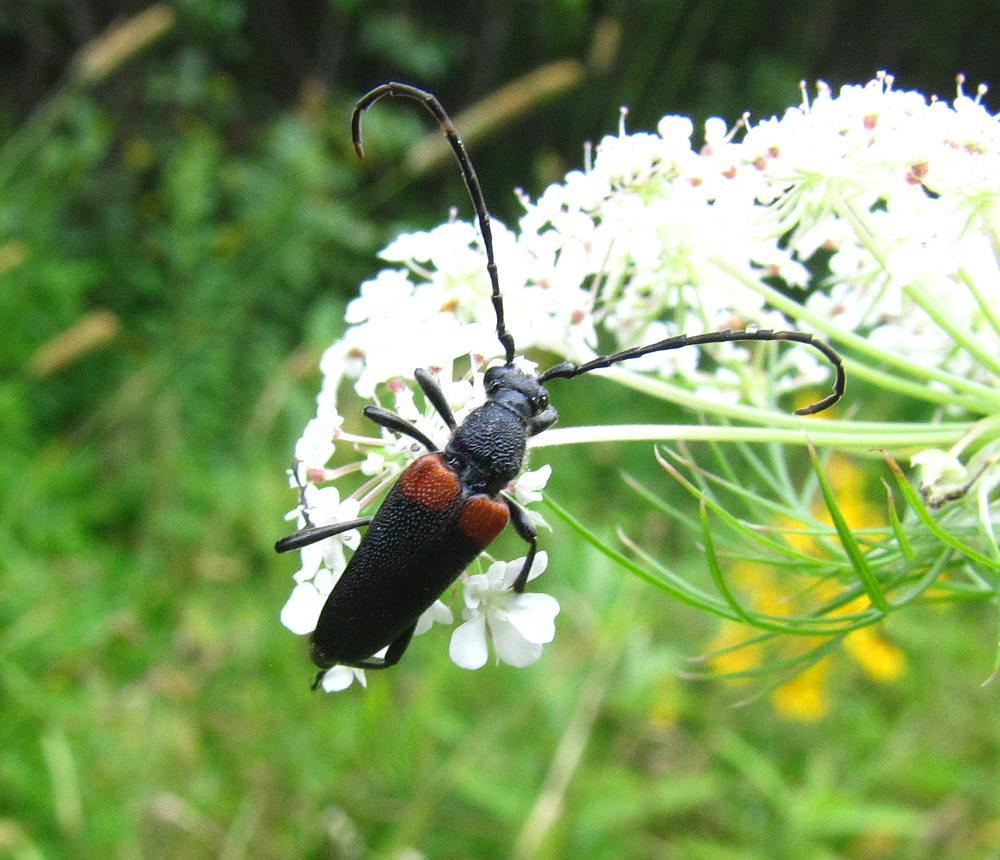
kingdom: Animalia
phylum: Arthropoda
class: Insecta
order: Coleoptera
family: Cerambycidae
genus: Stictoleptura
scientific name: Stictoleptura canadensis
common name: Red-shouldered pine borer
